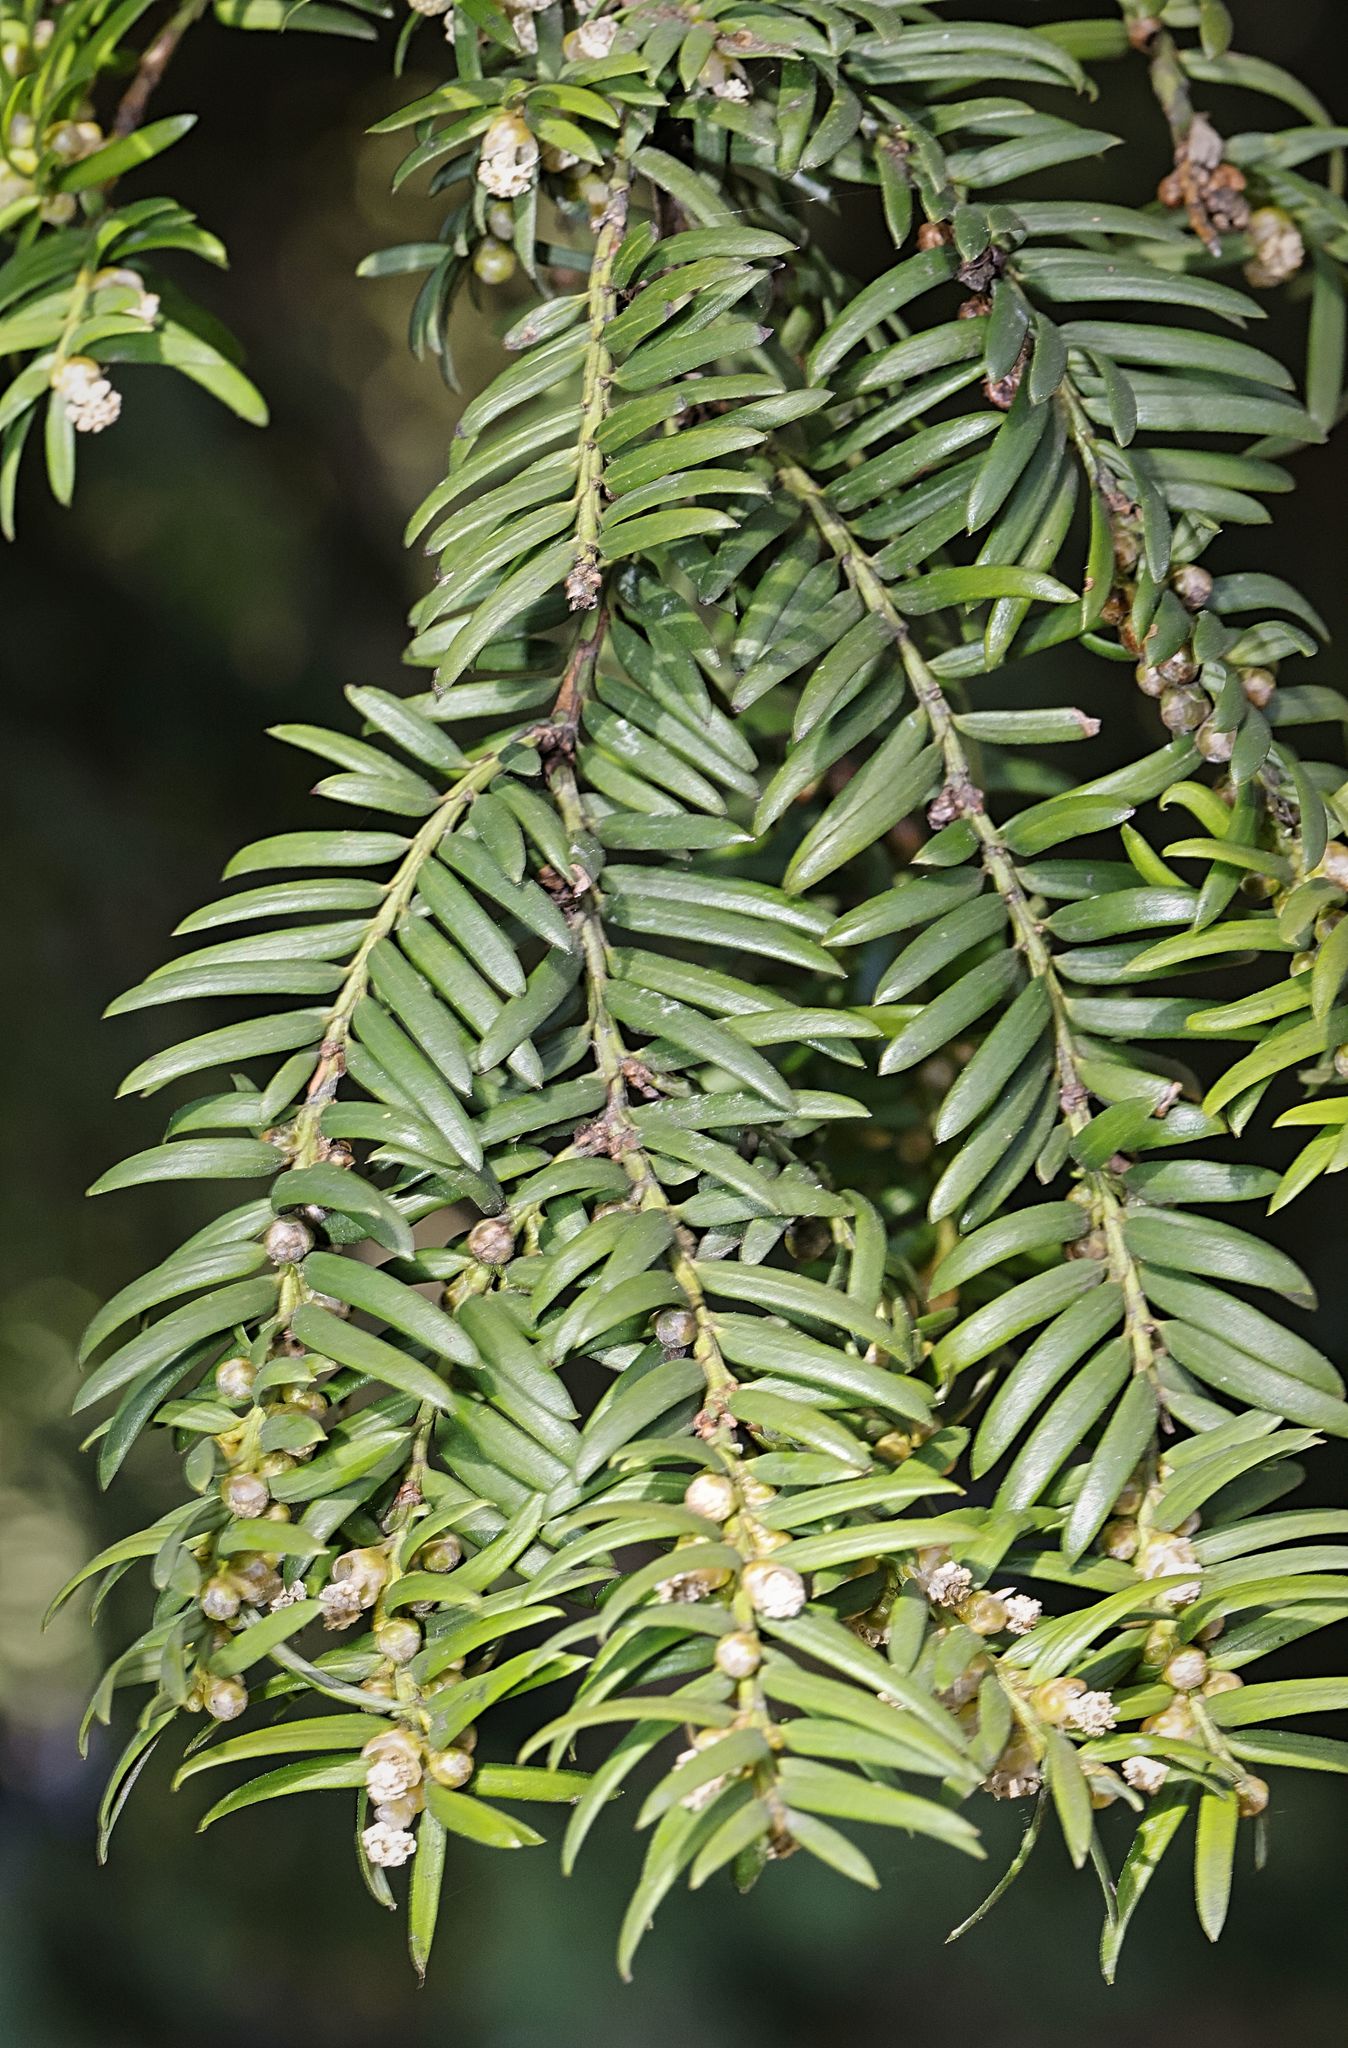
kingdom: Plantae
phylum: Tracheophyta
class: Pinopsida
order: Pinales
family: Taxaceae
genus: Taxus
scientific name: Taxus baccata
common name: Yew
